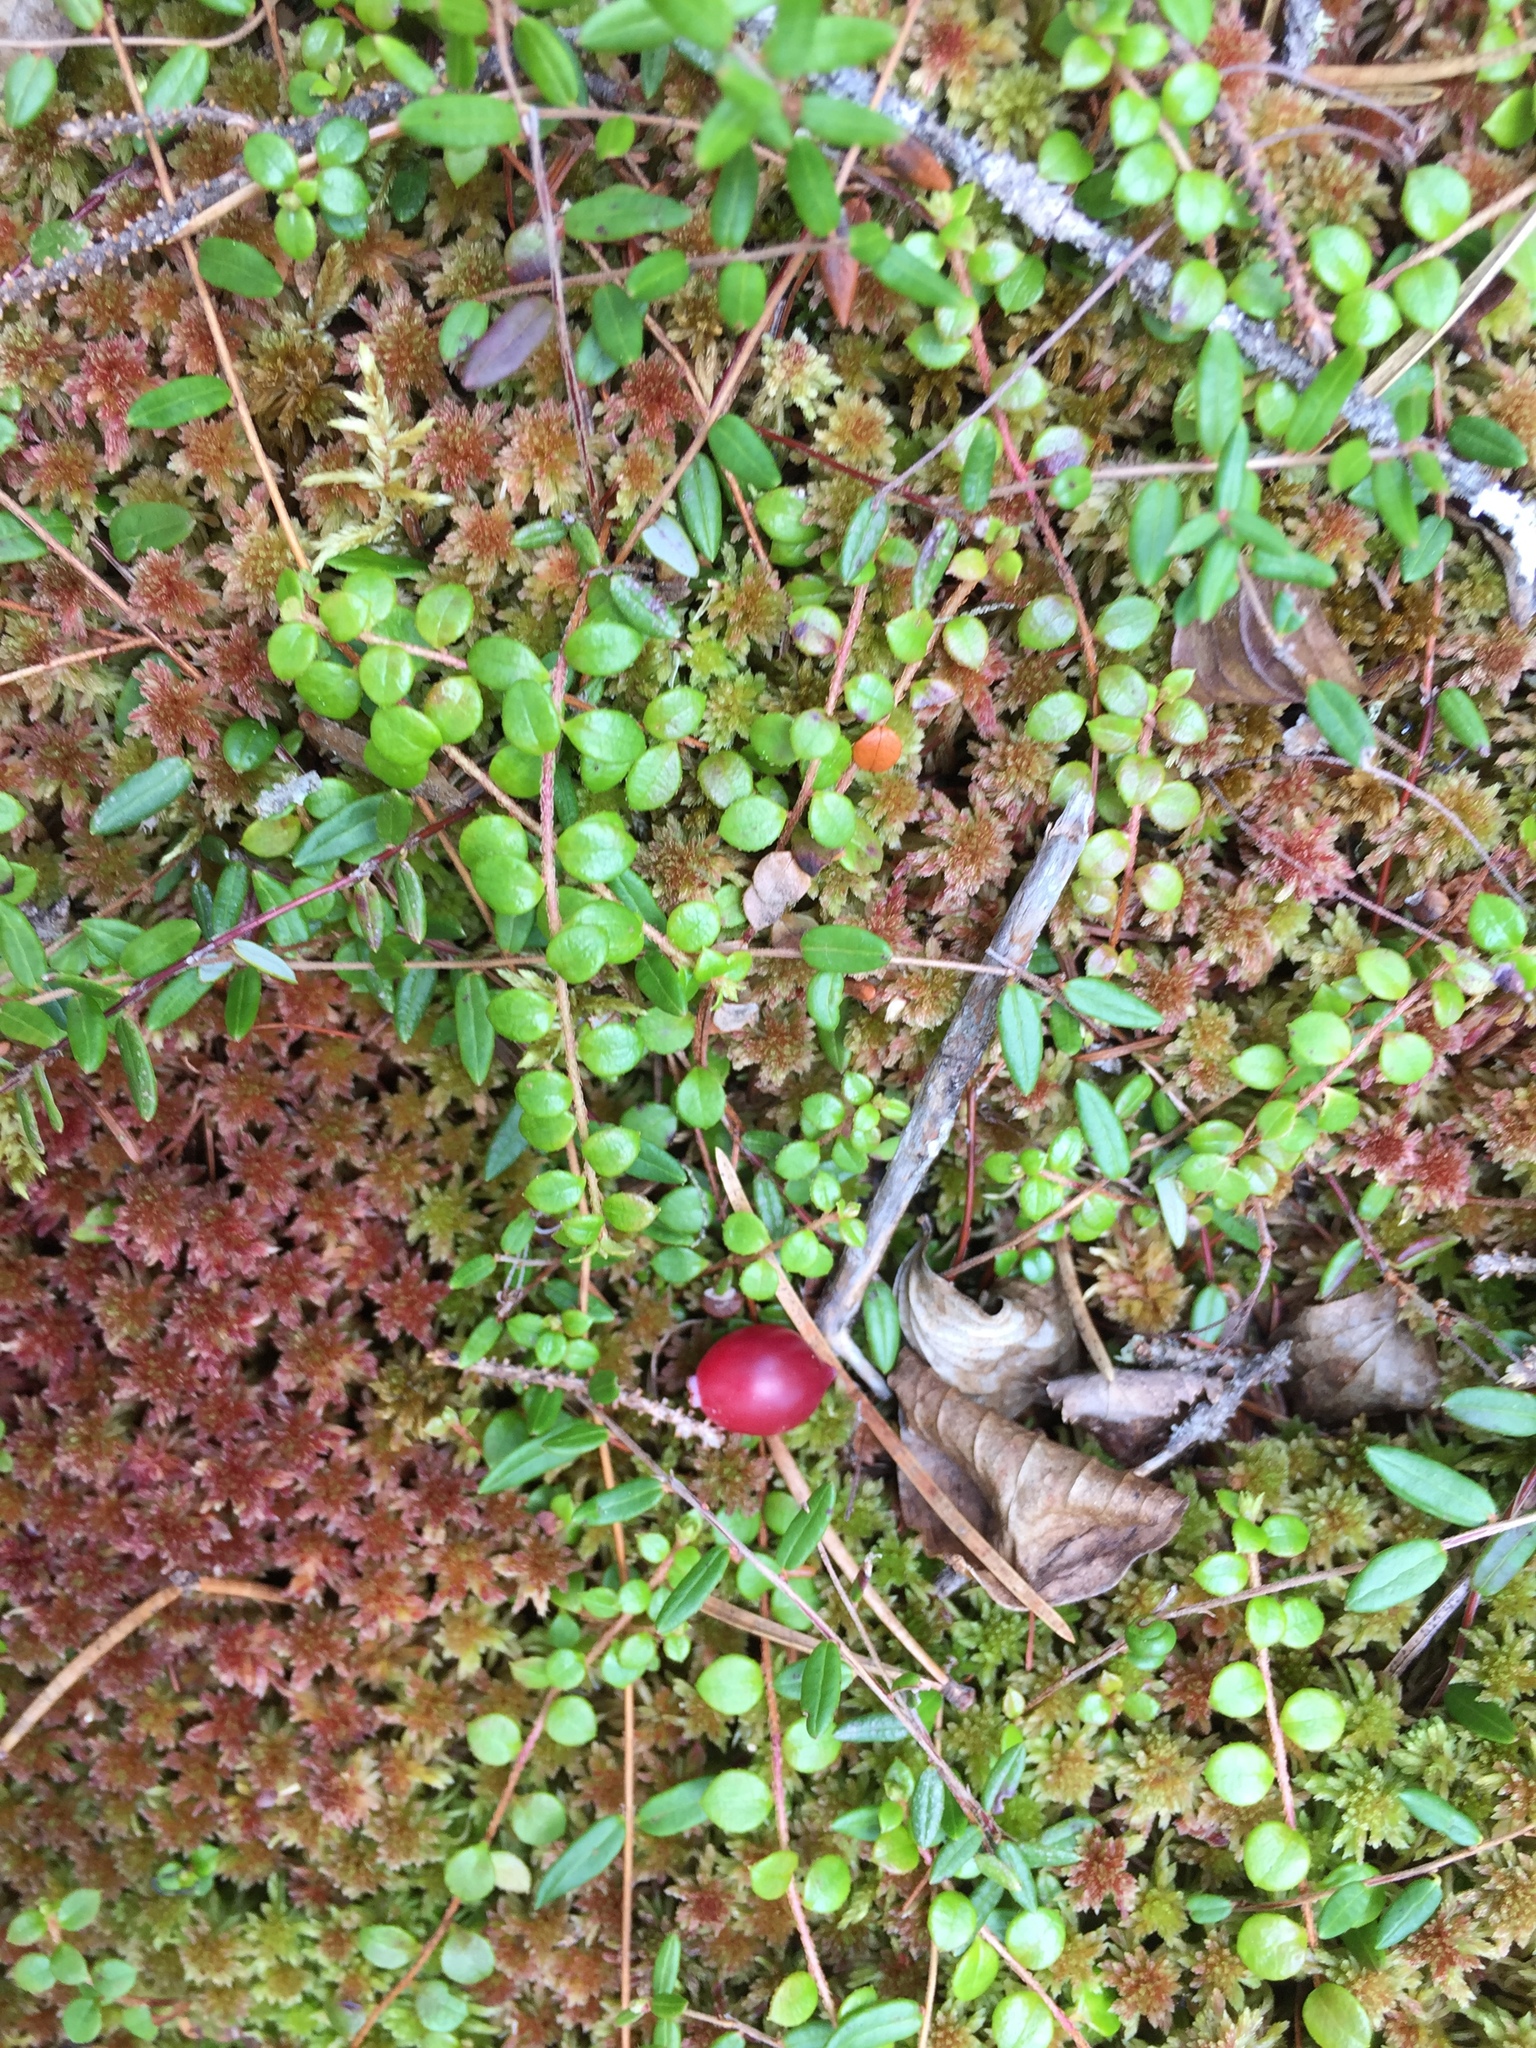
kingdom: Plantae
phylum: Tracheophyta
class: Magnoliopsida
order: Ericales
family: Ericaceae
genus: Vaccinium
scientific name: Vaccinium oxycoccos
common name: Cranberry
